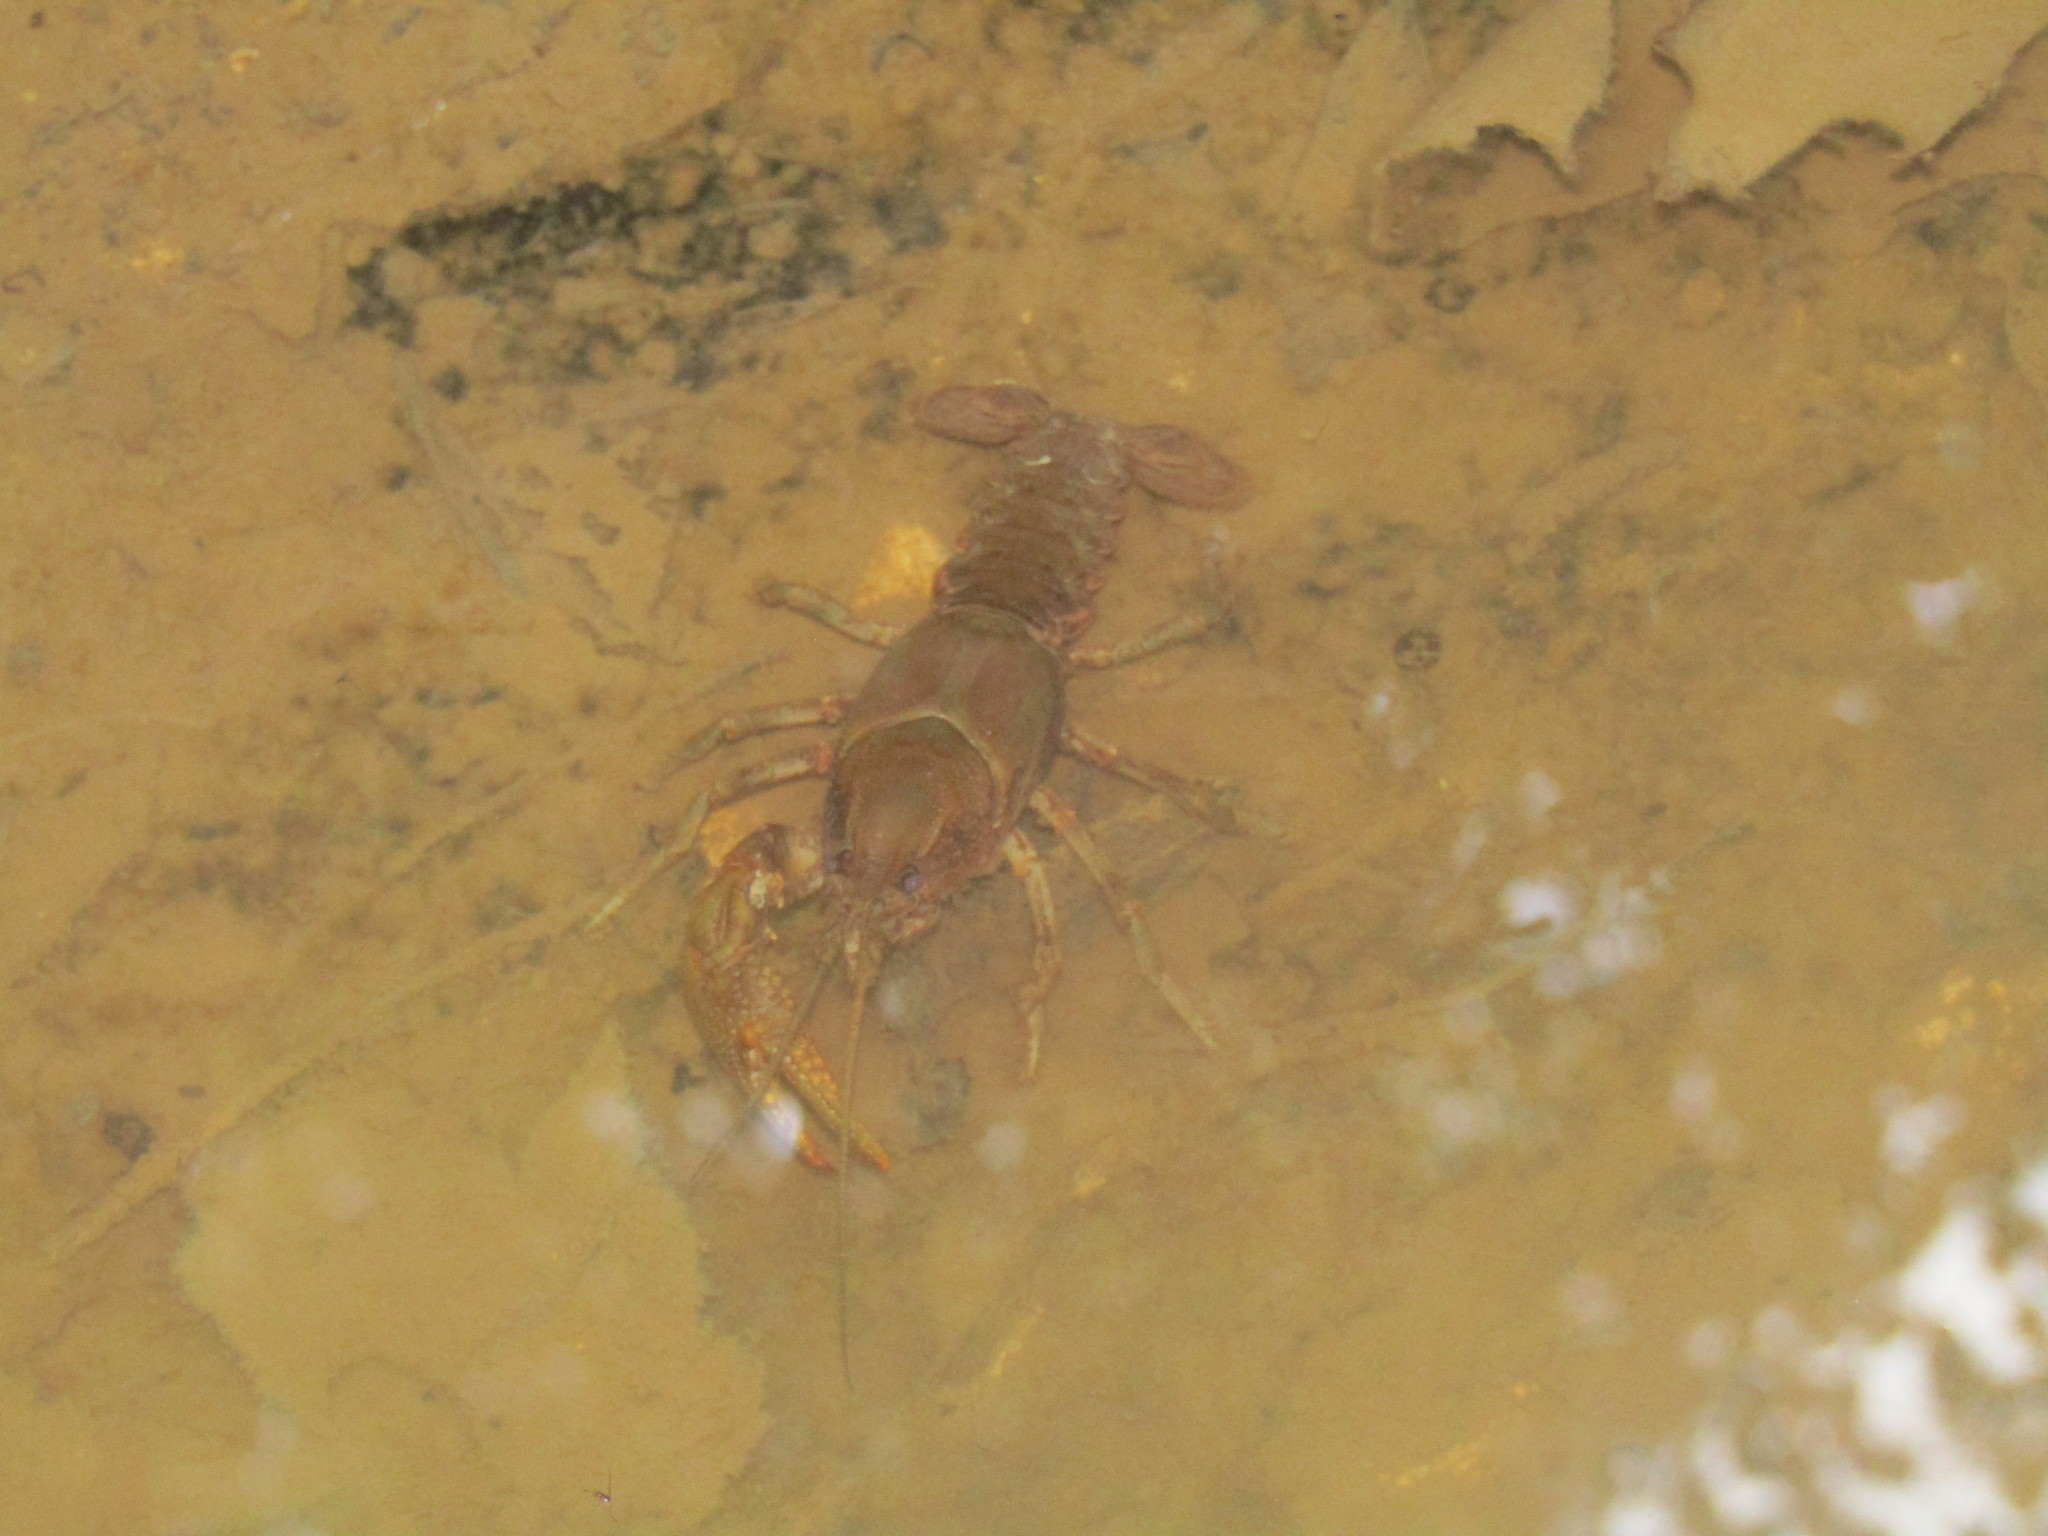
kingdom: Animalia
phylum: Arthropoda
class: Malacostraca
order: Decapoda
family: Cambaridae
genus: Cambarus
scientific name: Cambarus davidi
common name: Carolina ladle crayfish
